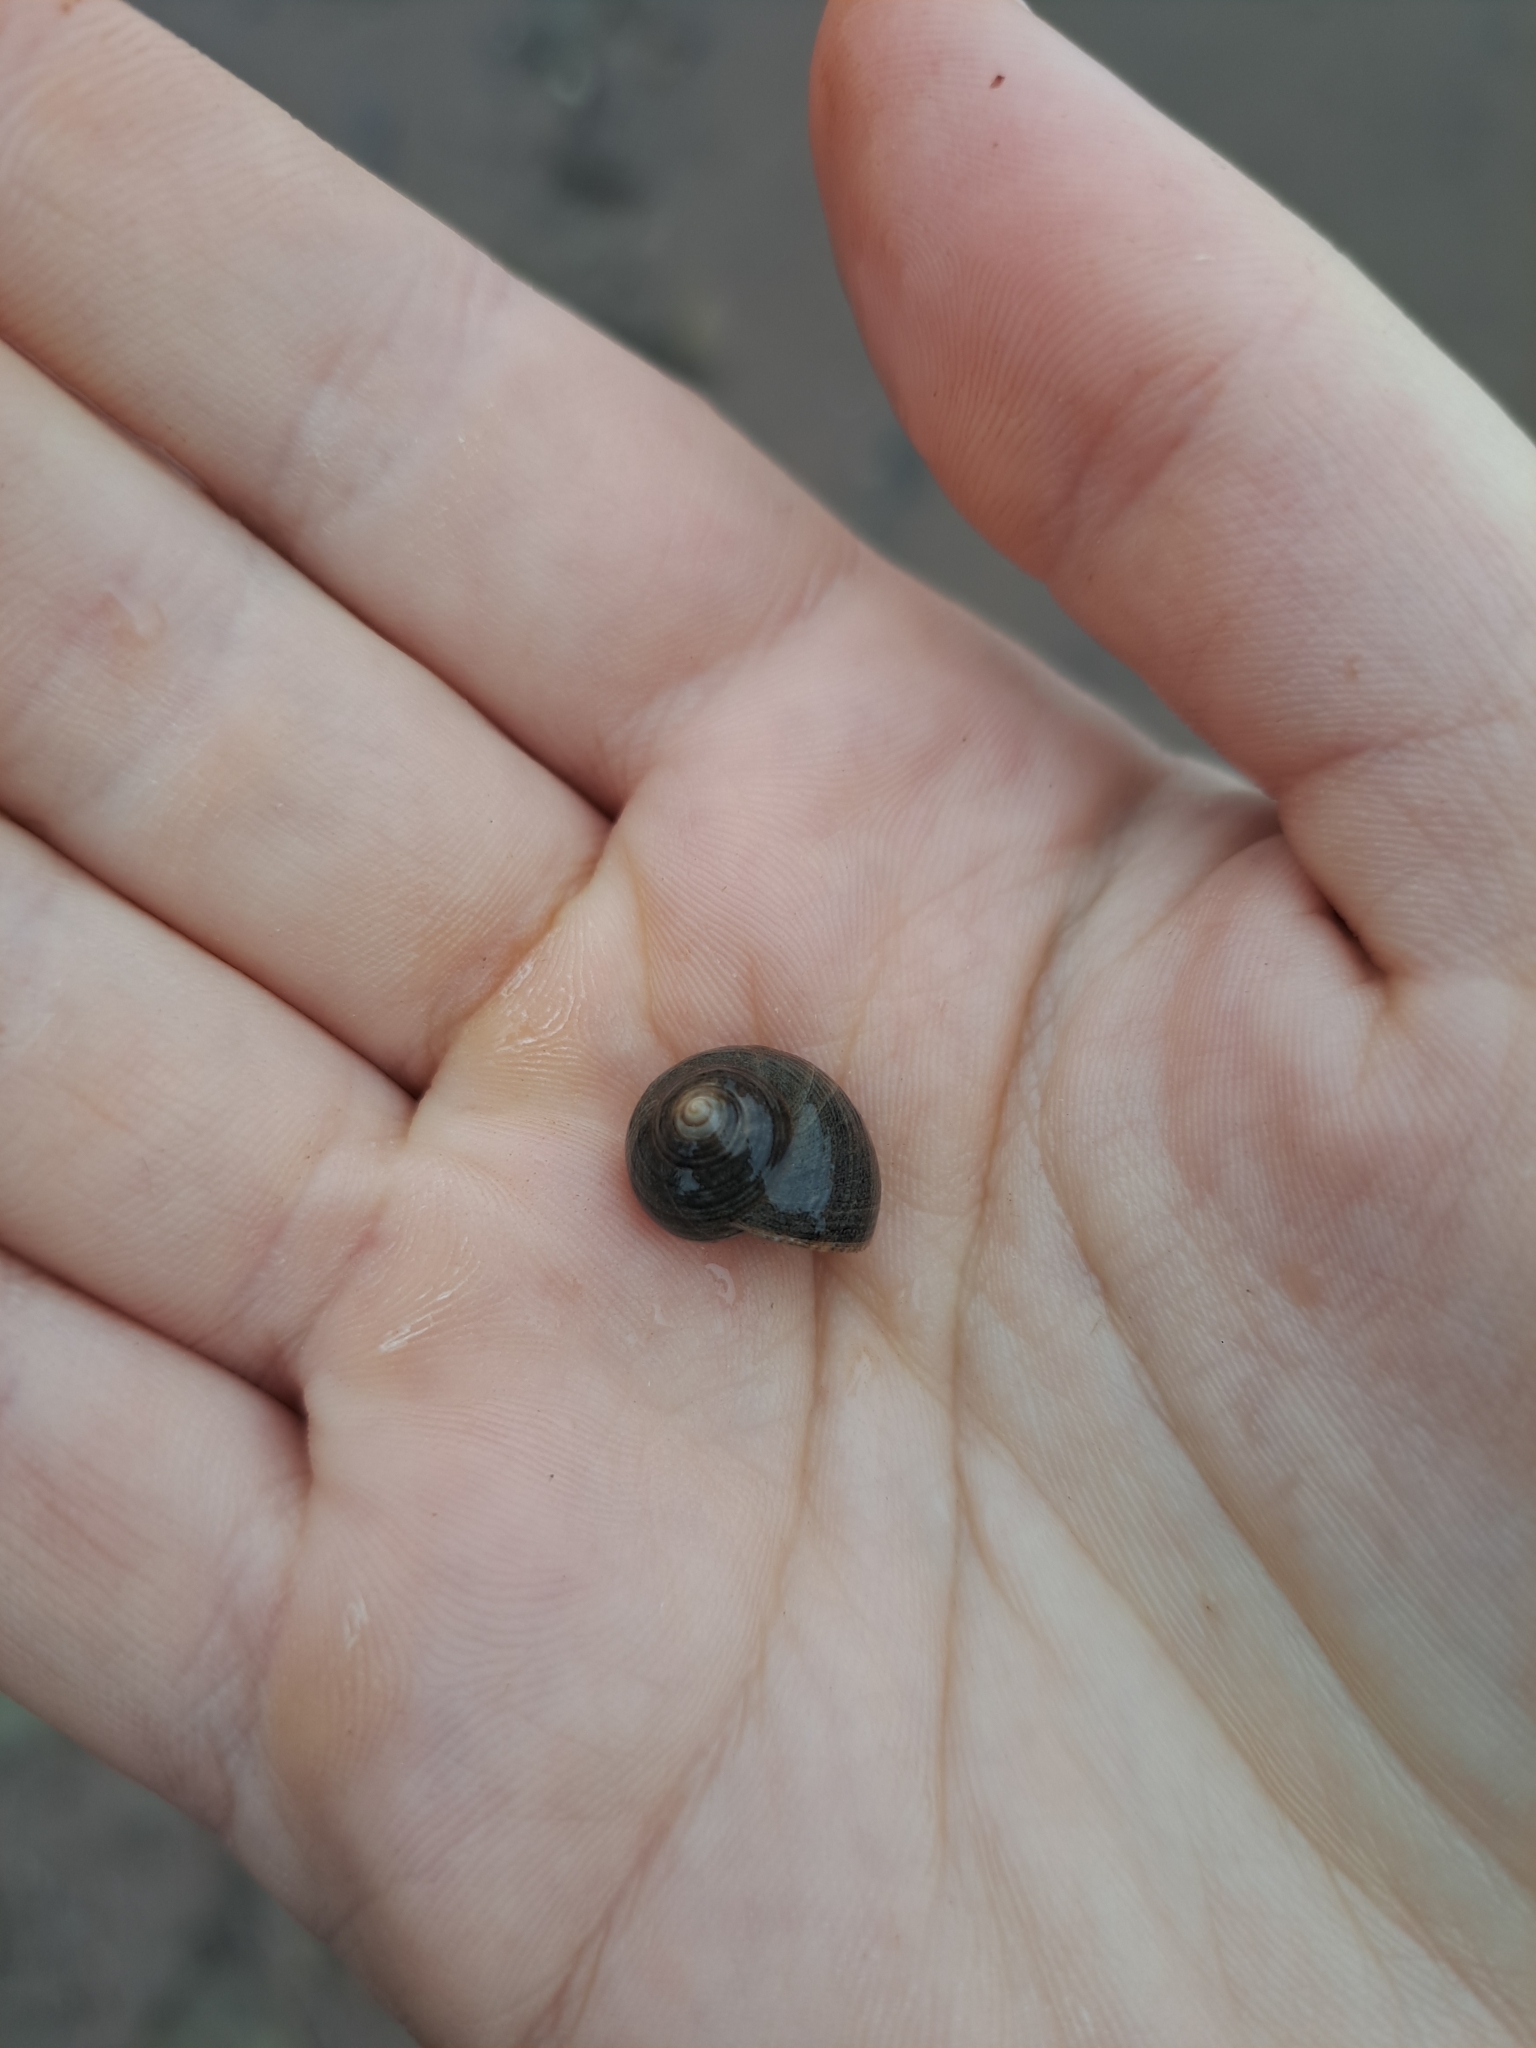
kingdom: Animalia
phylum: Mollusca
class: Gastropoda
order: Littorinimorpha
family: Littorinidae
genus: Littorina
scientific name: Littorina littorea
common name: Common periwinkle
